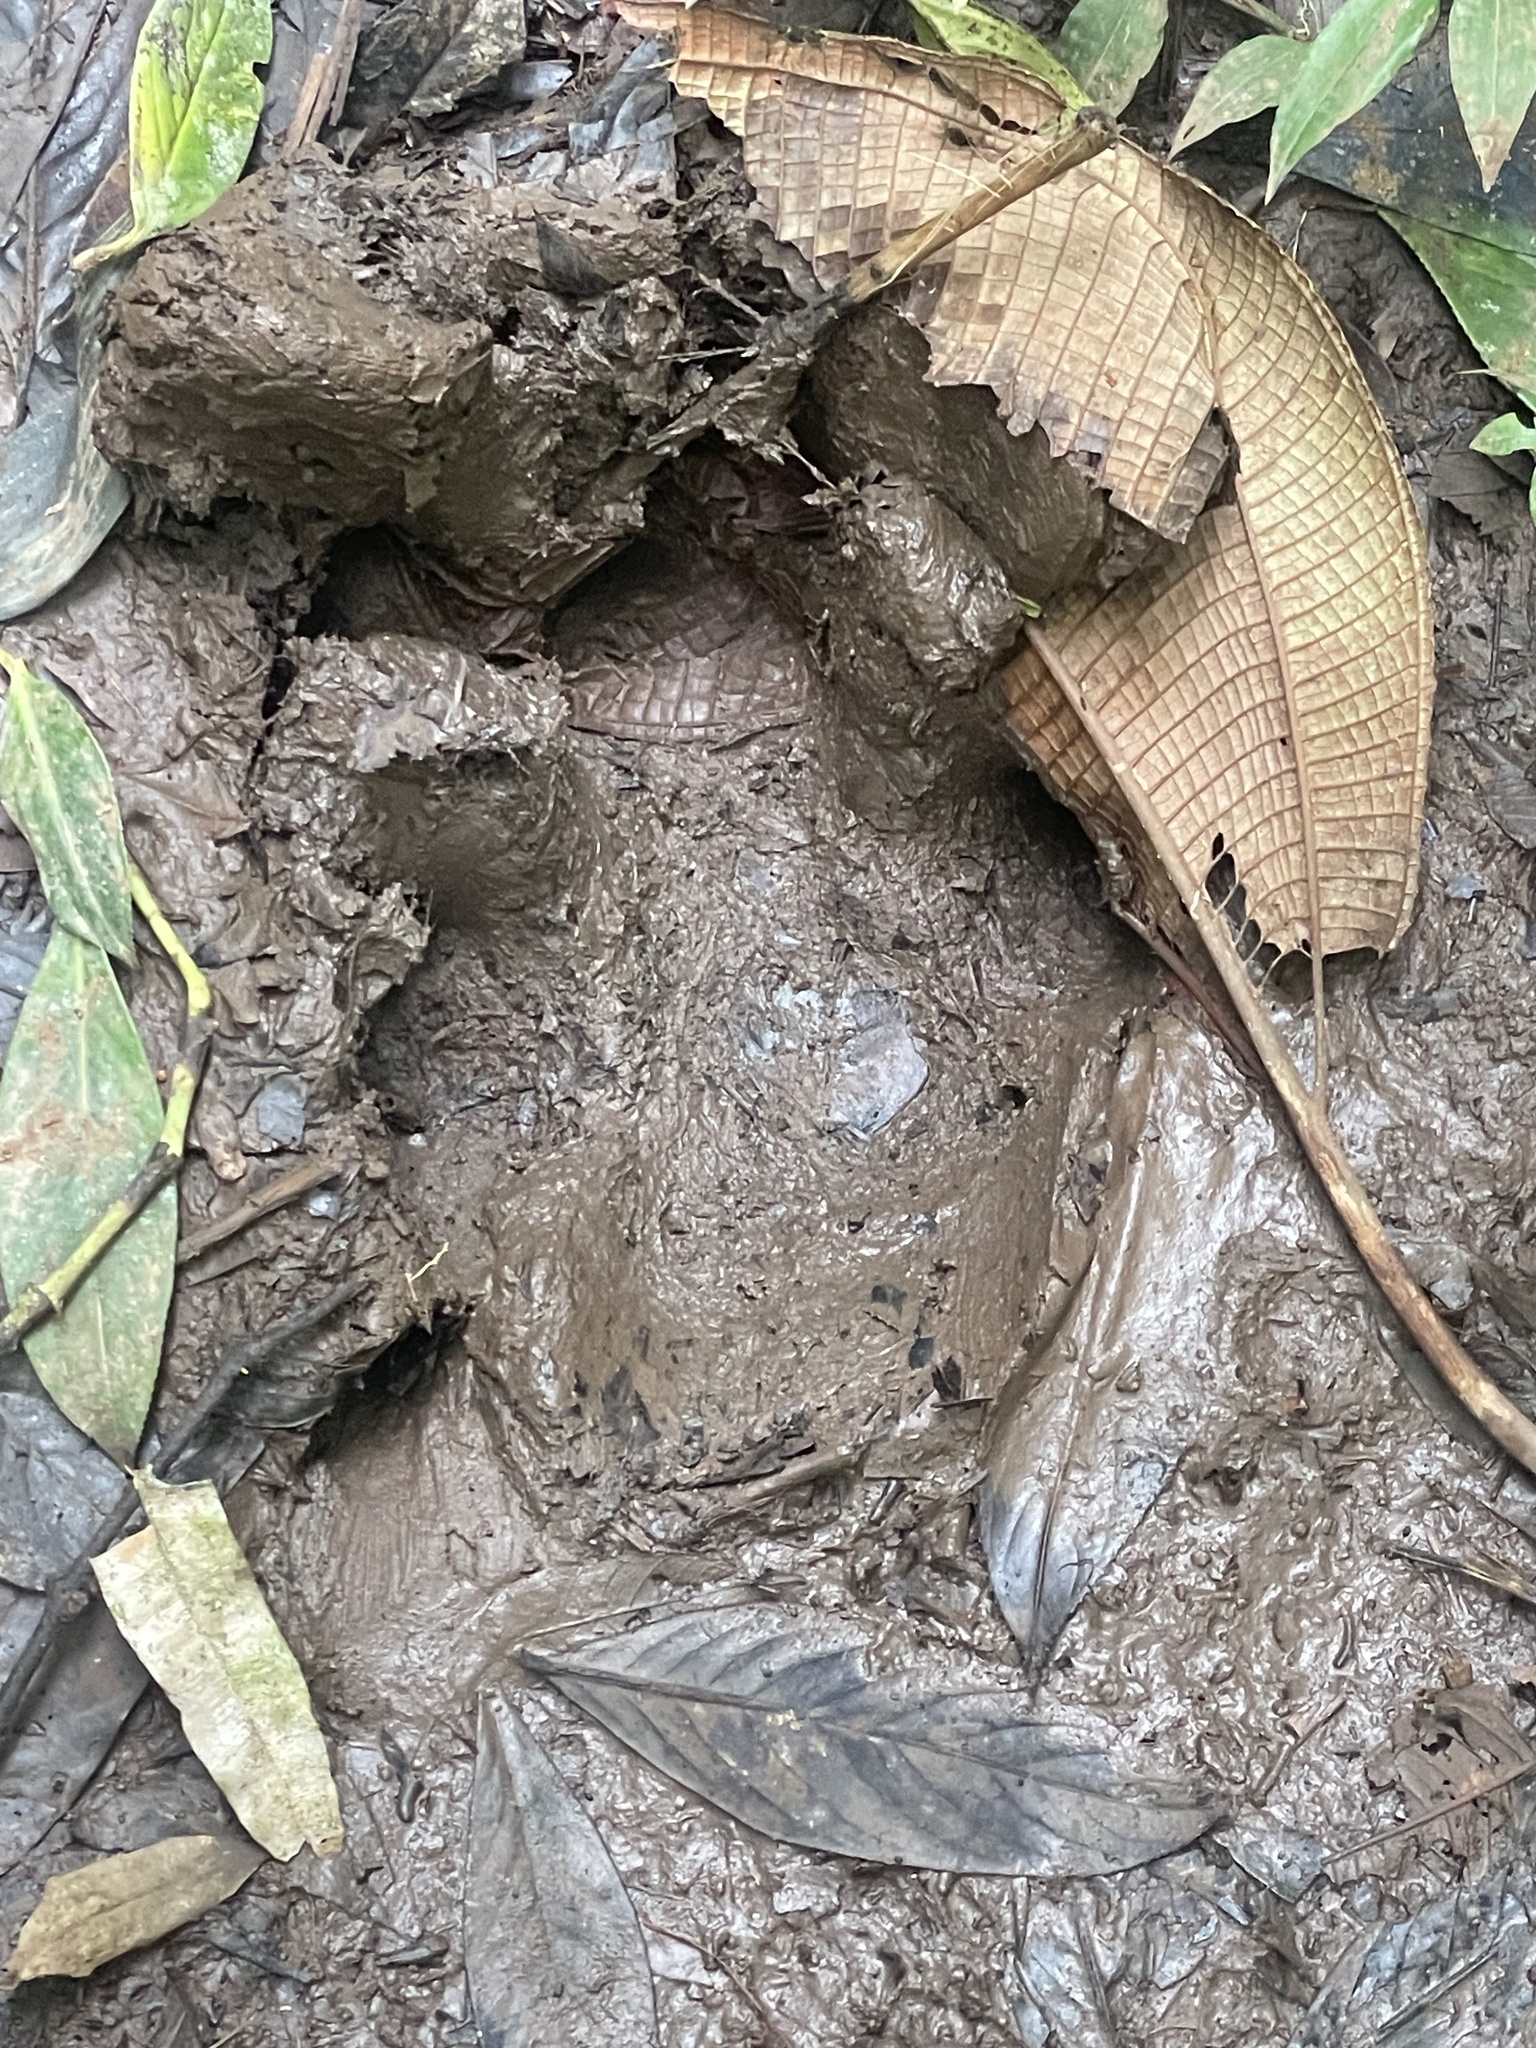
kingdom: Animalia
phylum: Chordata
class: Mammalia
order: Perissodactyla
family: Tapiridae
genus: Tapirella
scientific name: Tapirella bairdii
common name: Baird's tapir
